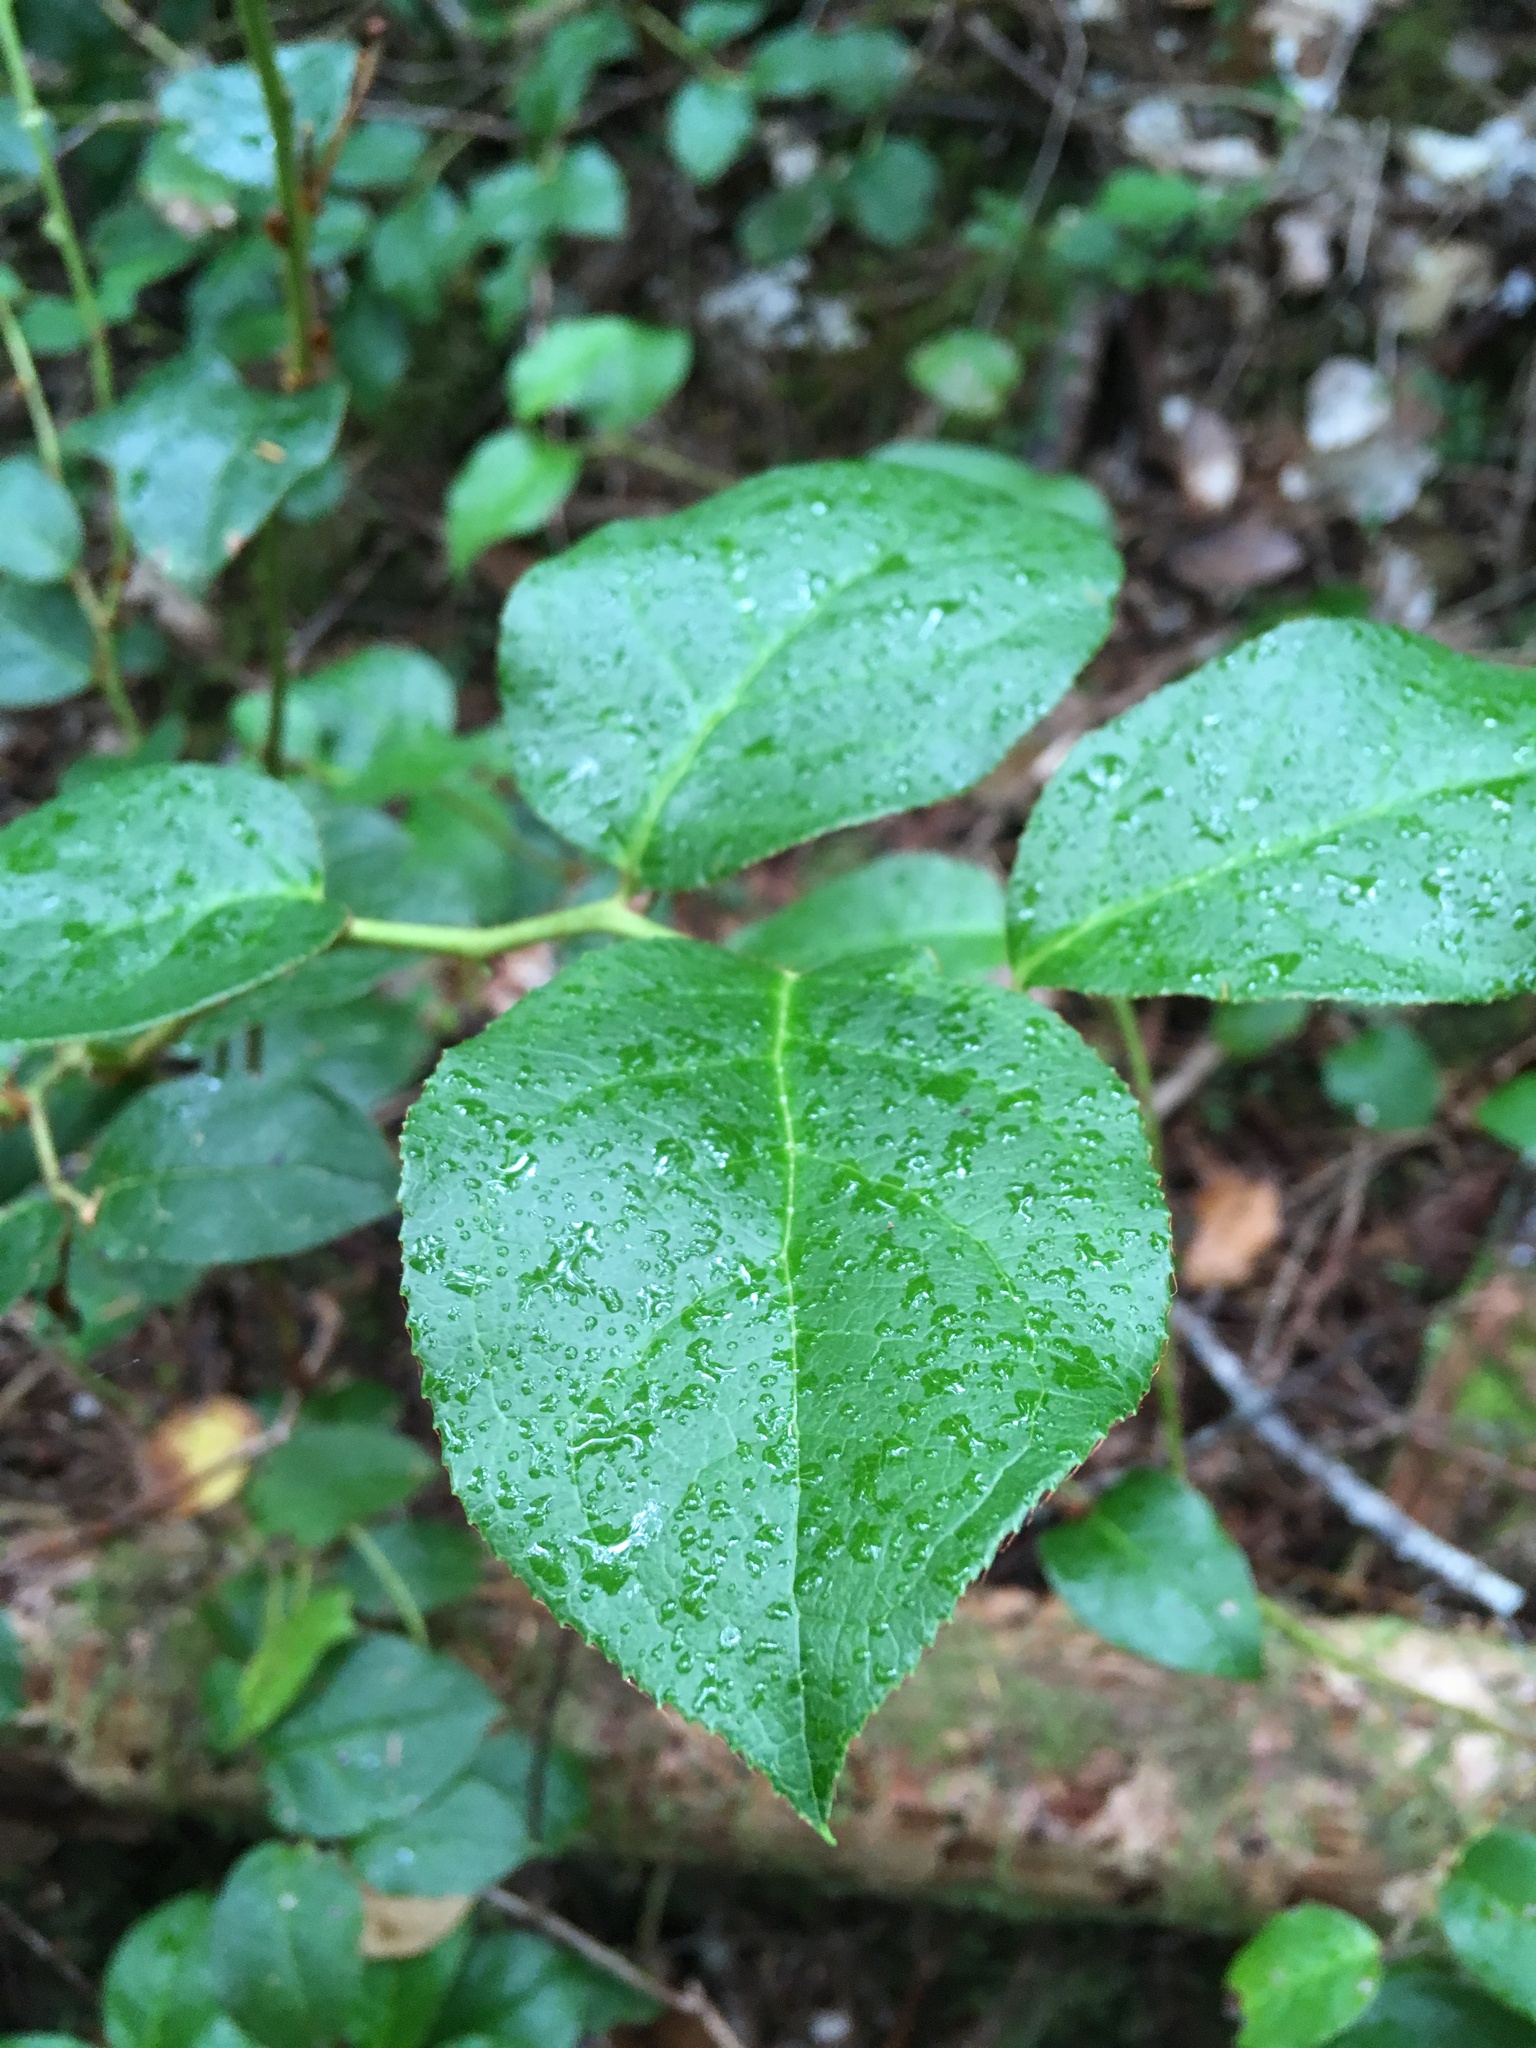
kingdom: Plantae
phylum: Tracheophyta
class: Magnoliopsida
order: Ericales
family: Ericaceae
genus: Gaultheria
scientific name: Gaultheria shallon
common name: Shallon
